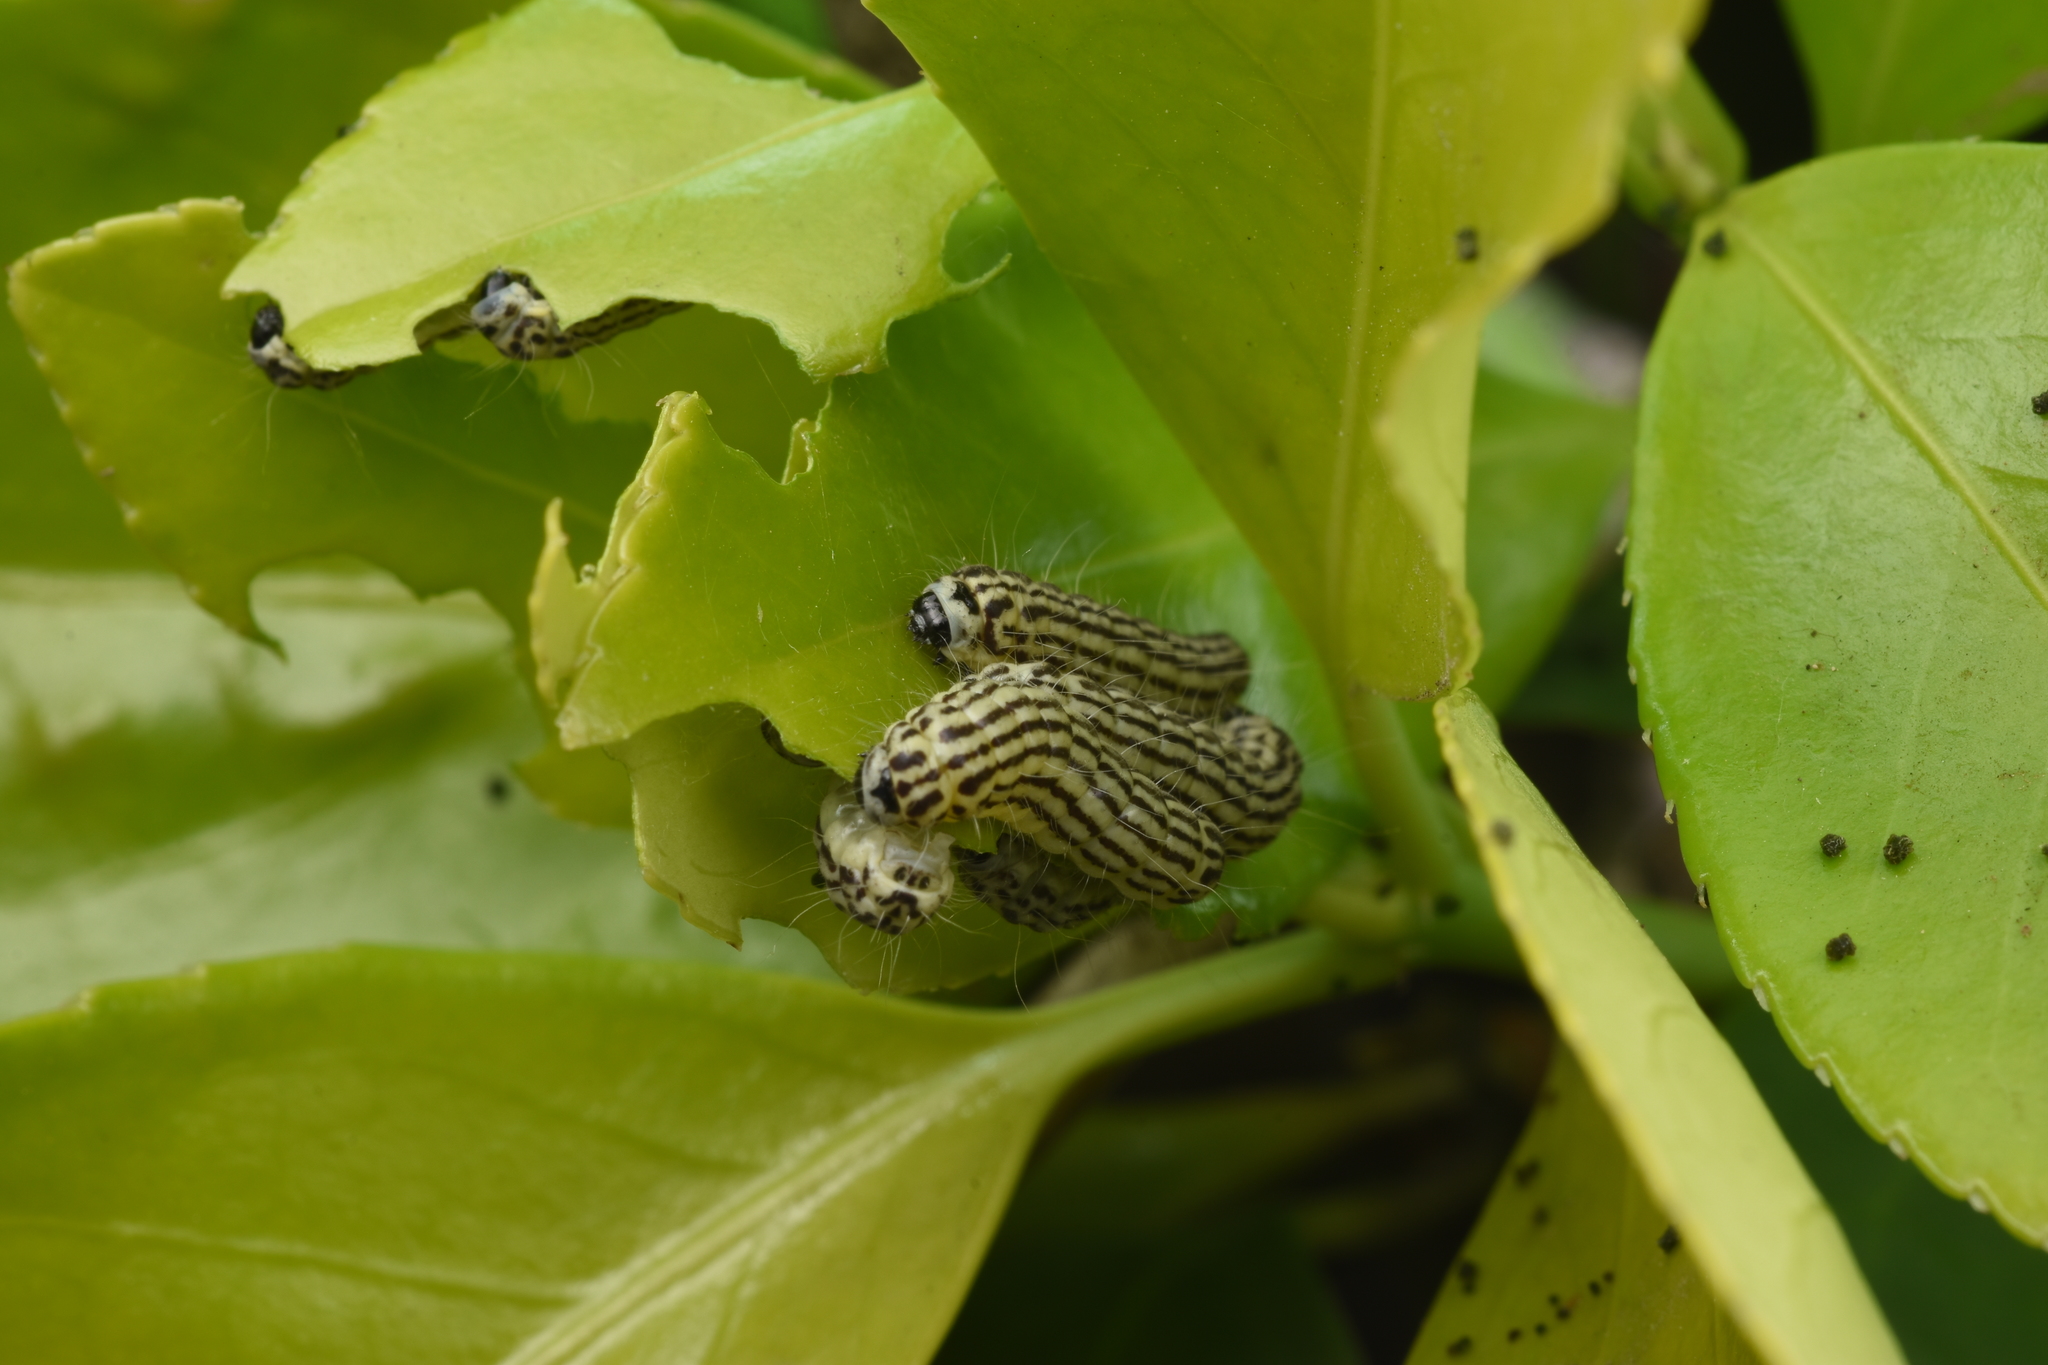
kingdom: Animalia
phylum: Arthropoda
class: Insecta
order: Lepidoptera
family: Zygaenidae
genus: Sinica
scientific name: Sinica sinica
